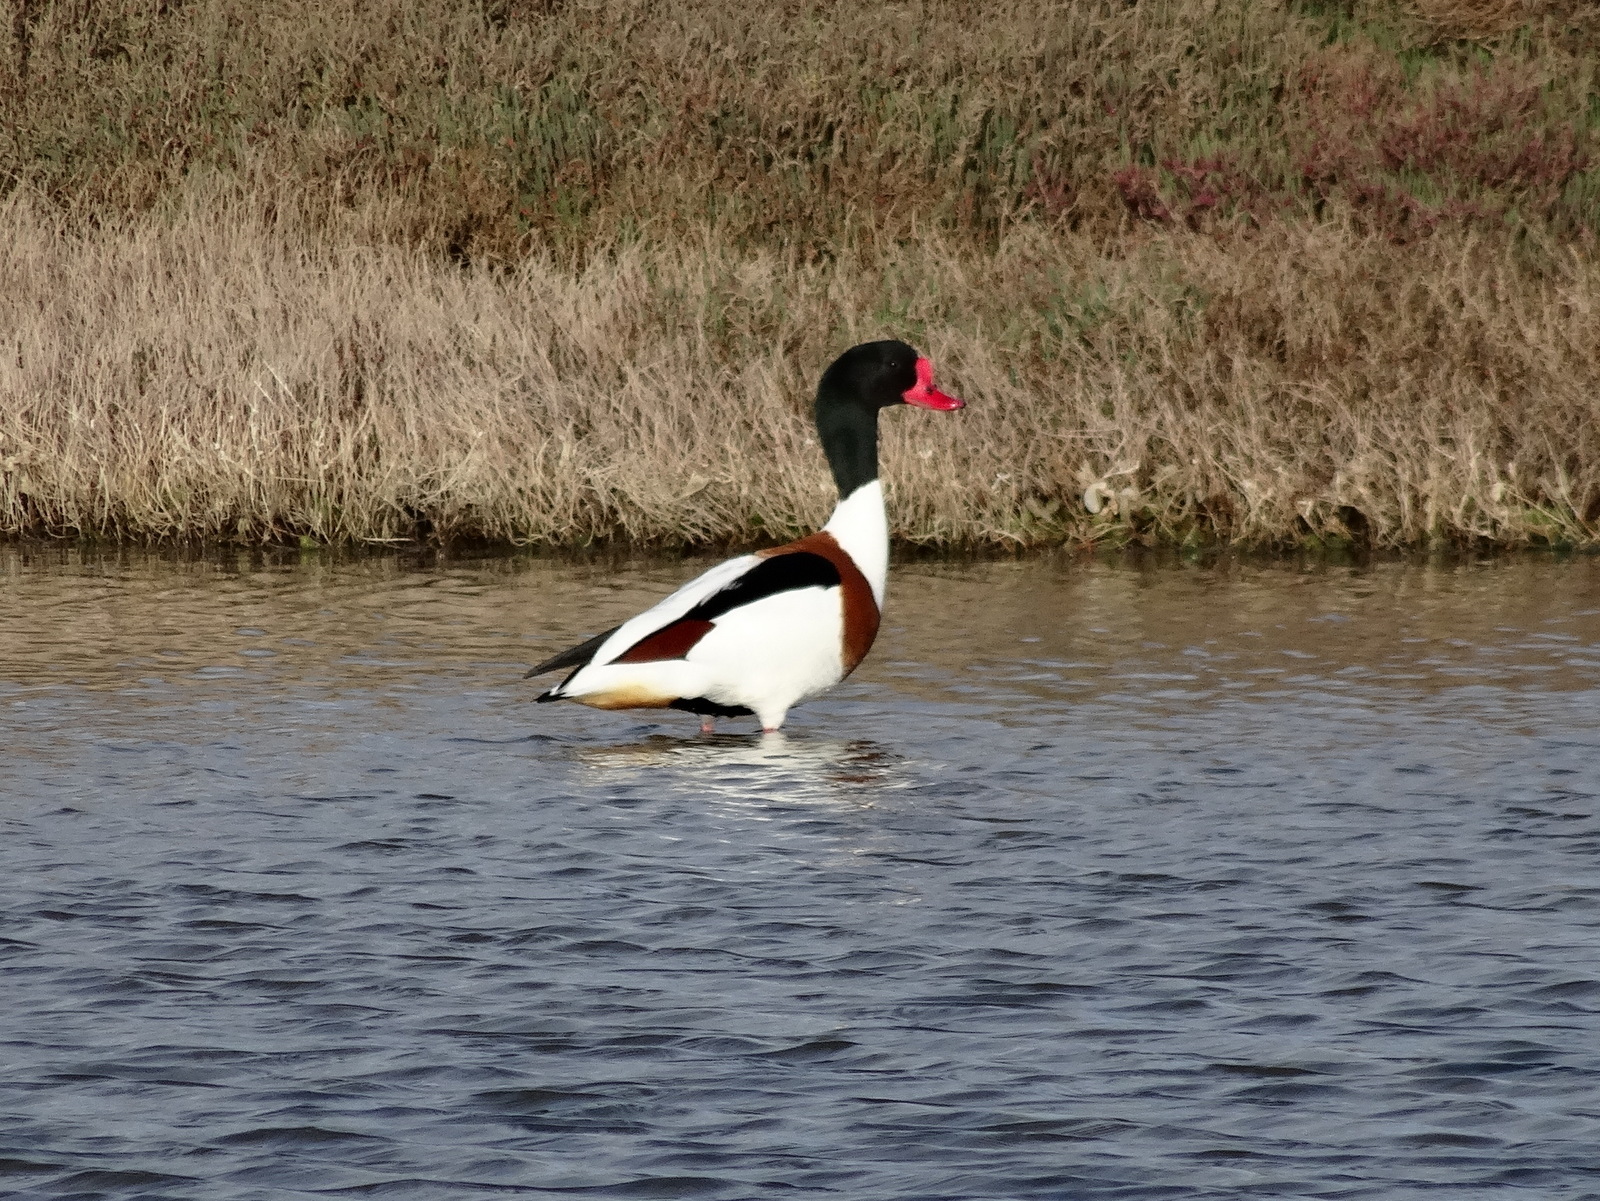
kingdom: Animalia
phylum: Chordata
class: Aves
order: Anseriformes
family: Anatidae
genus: Tadorna
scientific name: Tadorna tadorna
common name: Common shelduck
